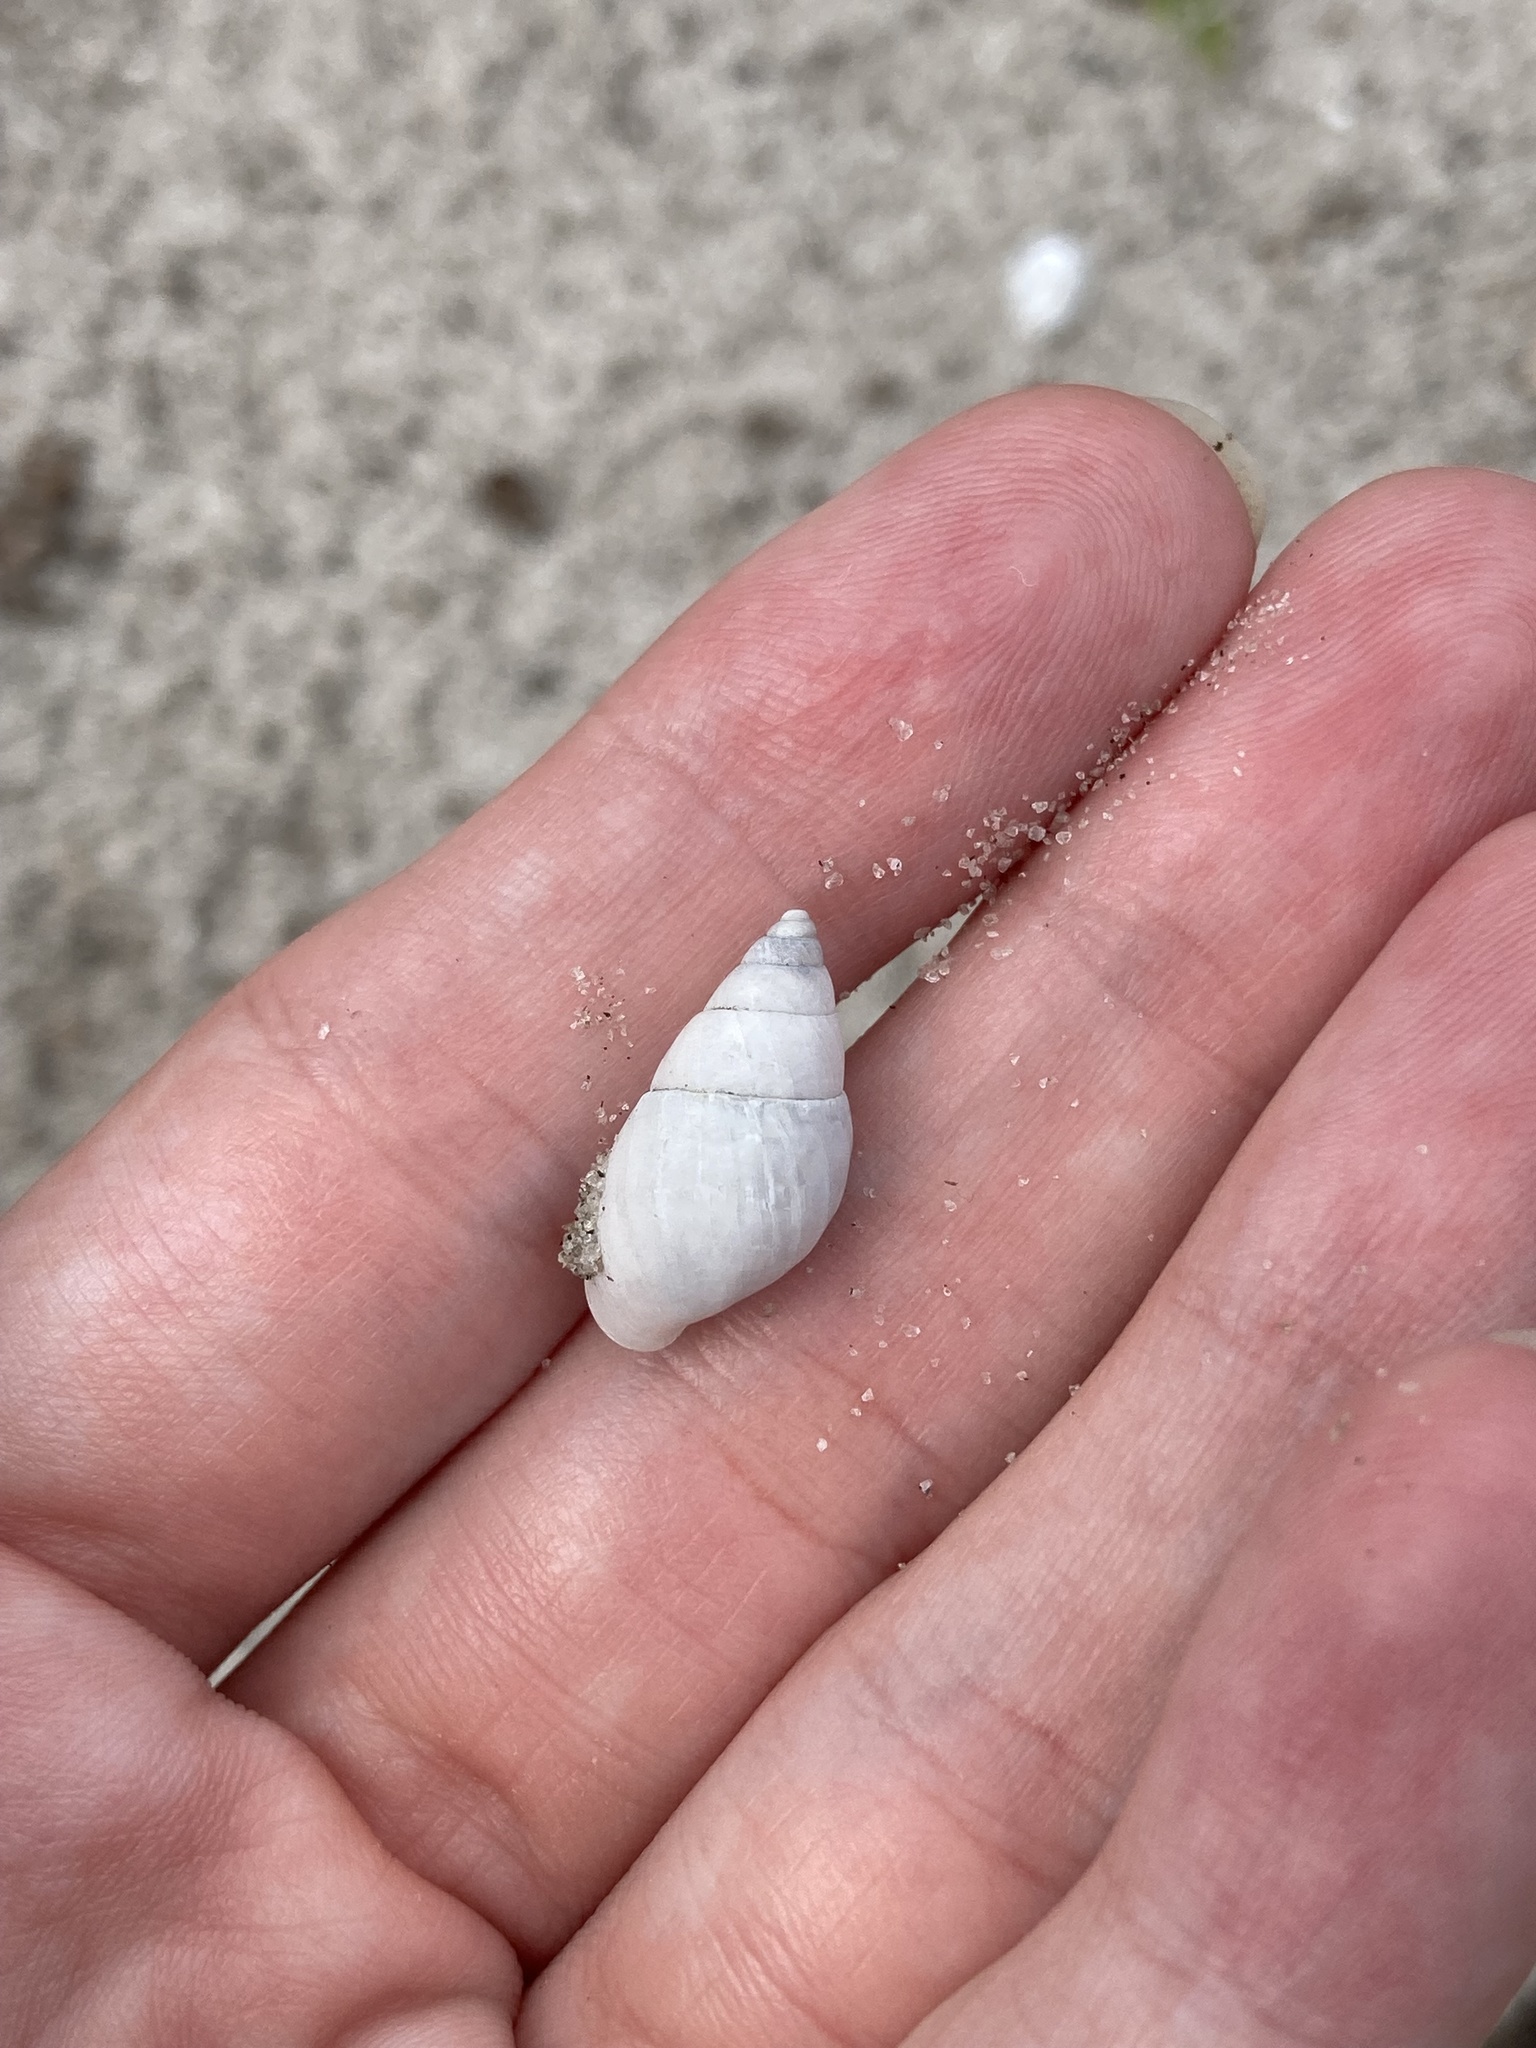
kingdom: Animalia
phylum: Mollusca
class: Gastropoda
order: Stylommatophora
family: Bulimulidae
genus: Bulimulus
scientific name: Bulimulus guadalupensis
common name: West indian bulimulus
